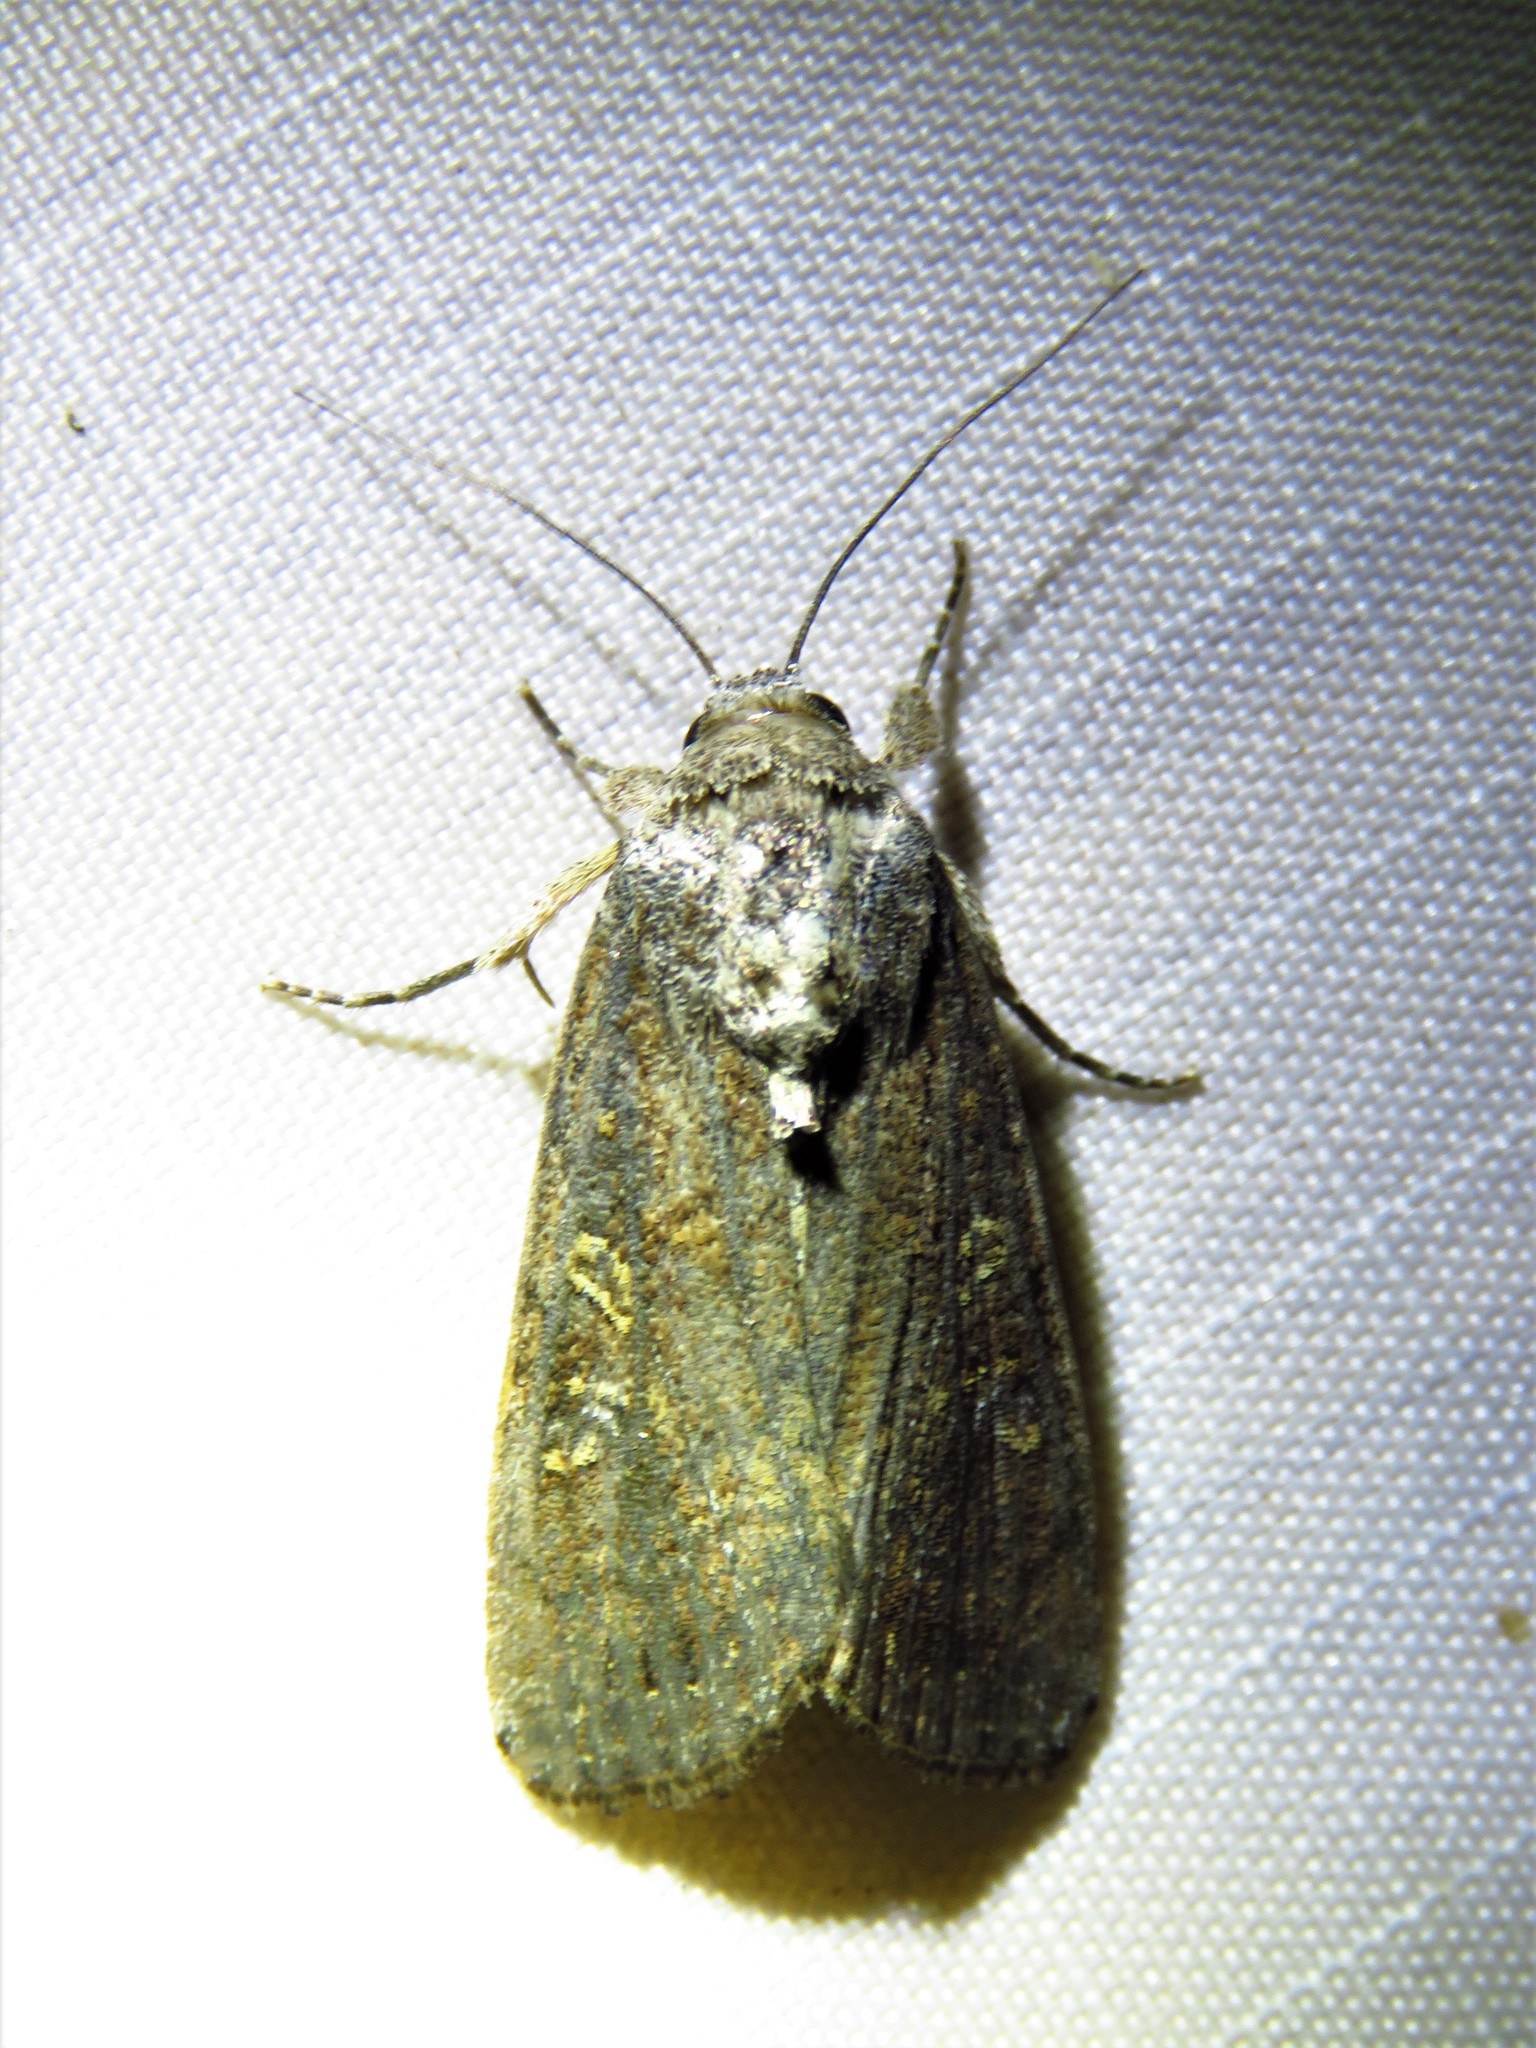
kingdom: Animalia
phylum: Arthropoda
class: Insecta
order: Lepidoptera
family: Noctuidae
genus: Spodoptera
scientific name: Spodoptera exigua
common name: Beet armyworm
